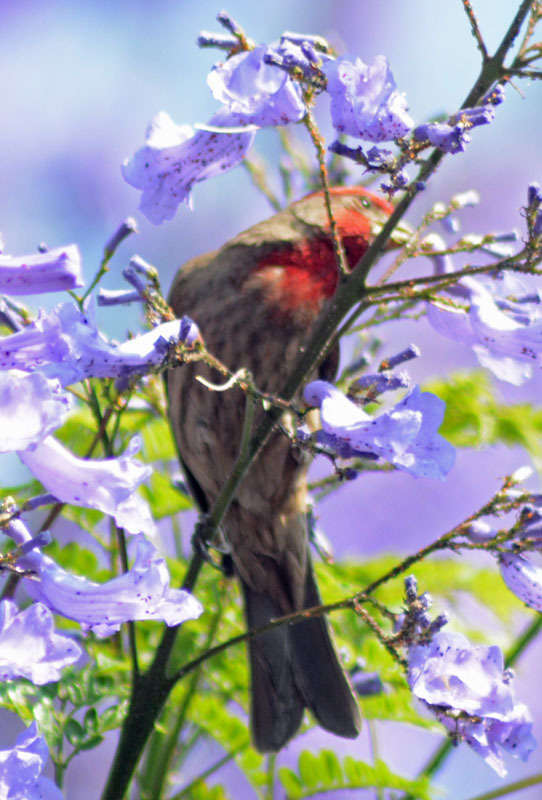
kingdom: Animalia
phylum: Chordata
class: Aves
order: Passeriformes
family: Fringillidae
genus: Haemorhous
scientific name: Haemorhous mexicanus
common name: House finch
